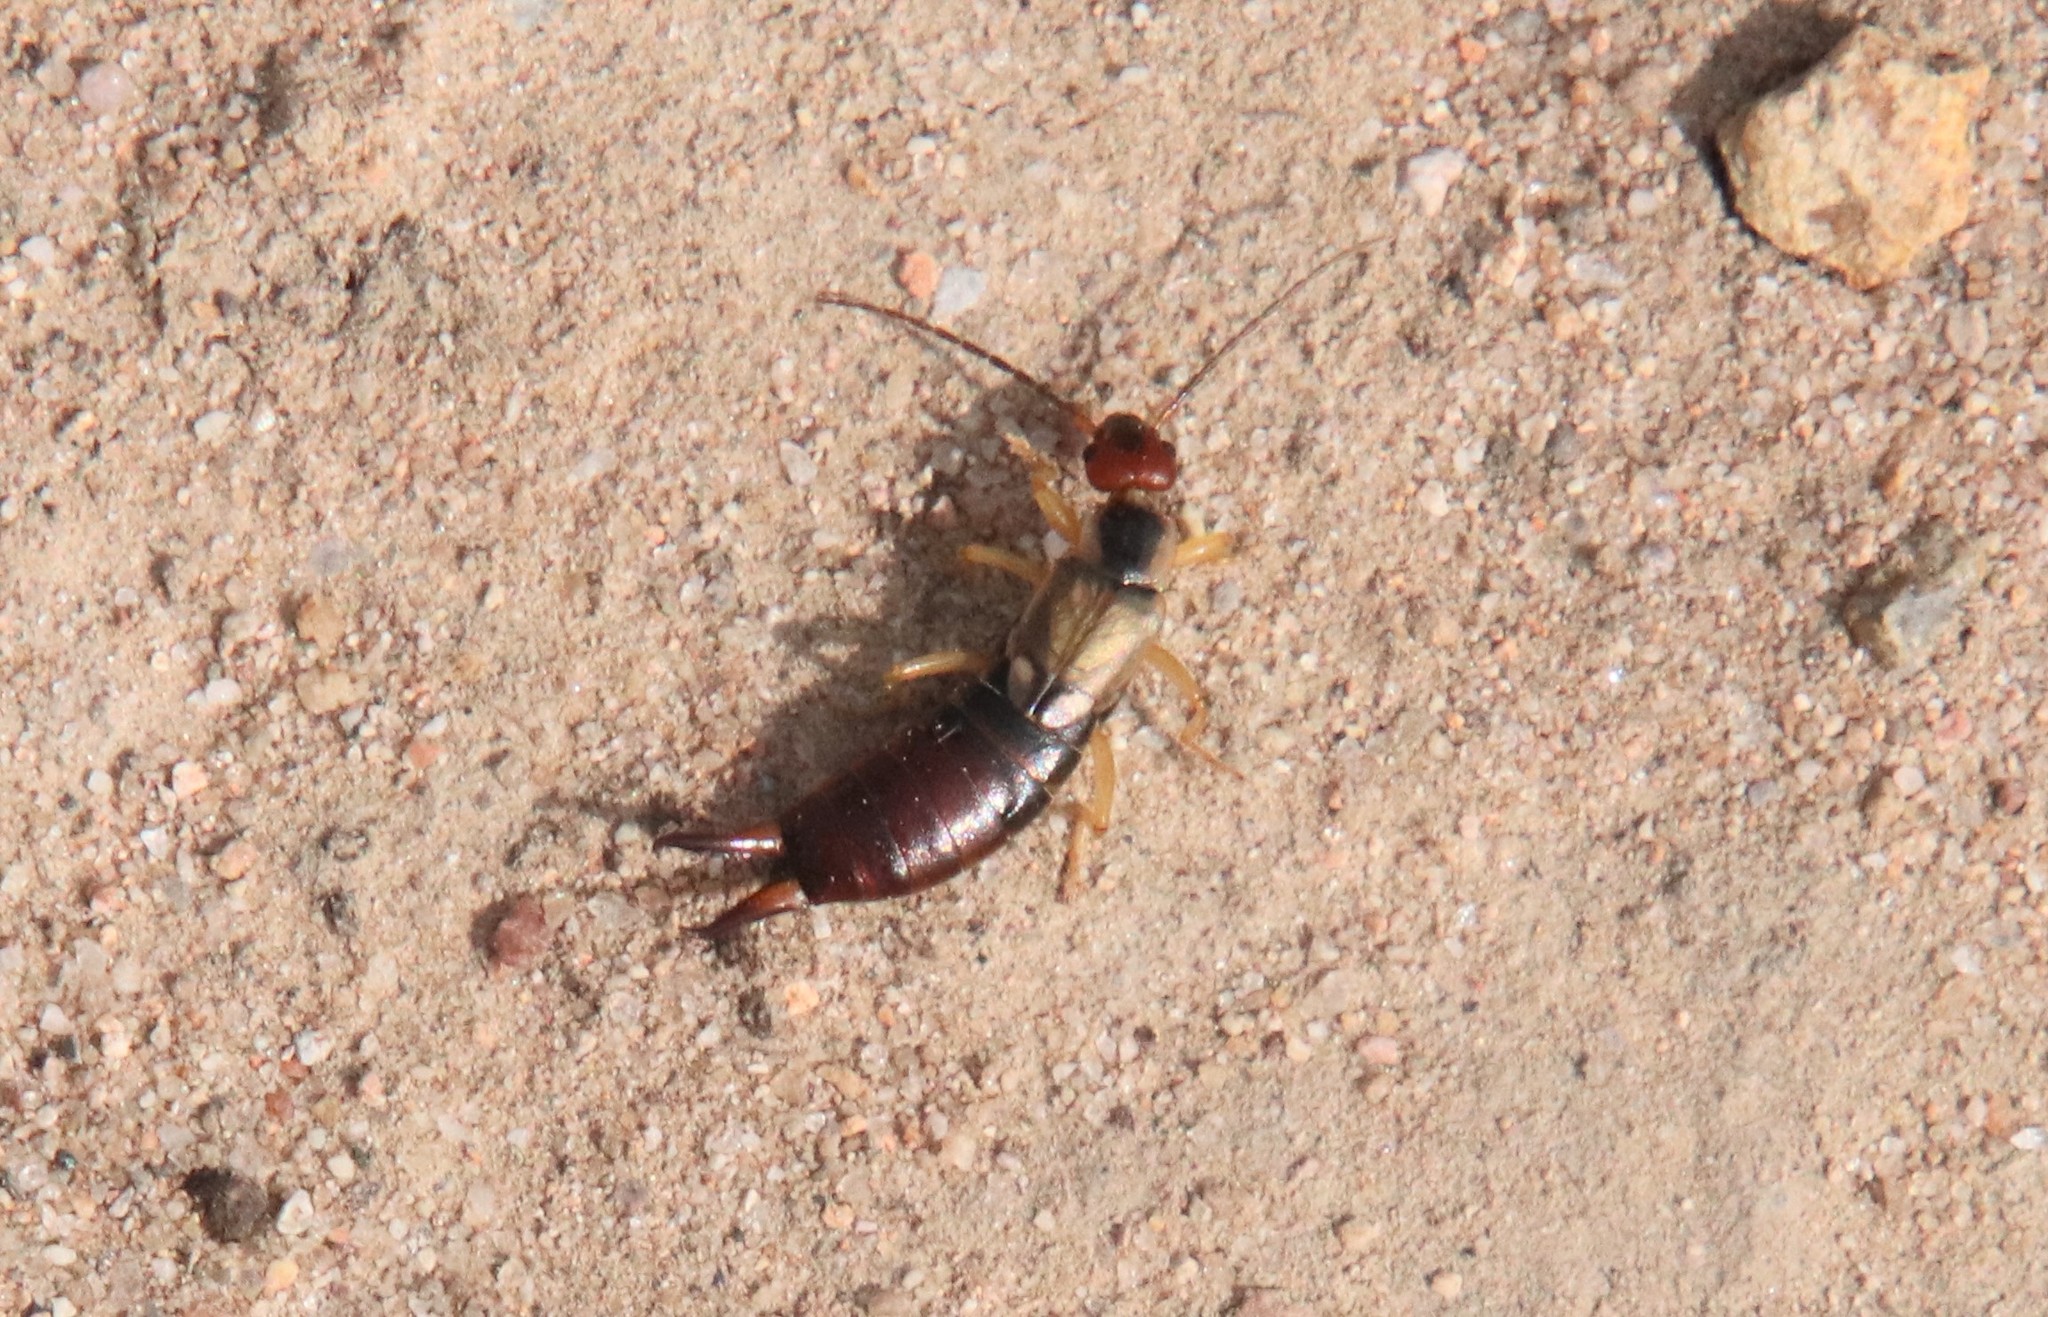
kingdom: Animalia
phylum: Arthropoda
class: Insecta
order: Dermaptera
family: Forficulidae
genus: Forficula
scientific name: Forficula
